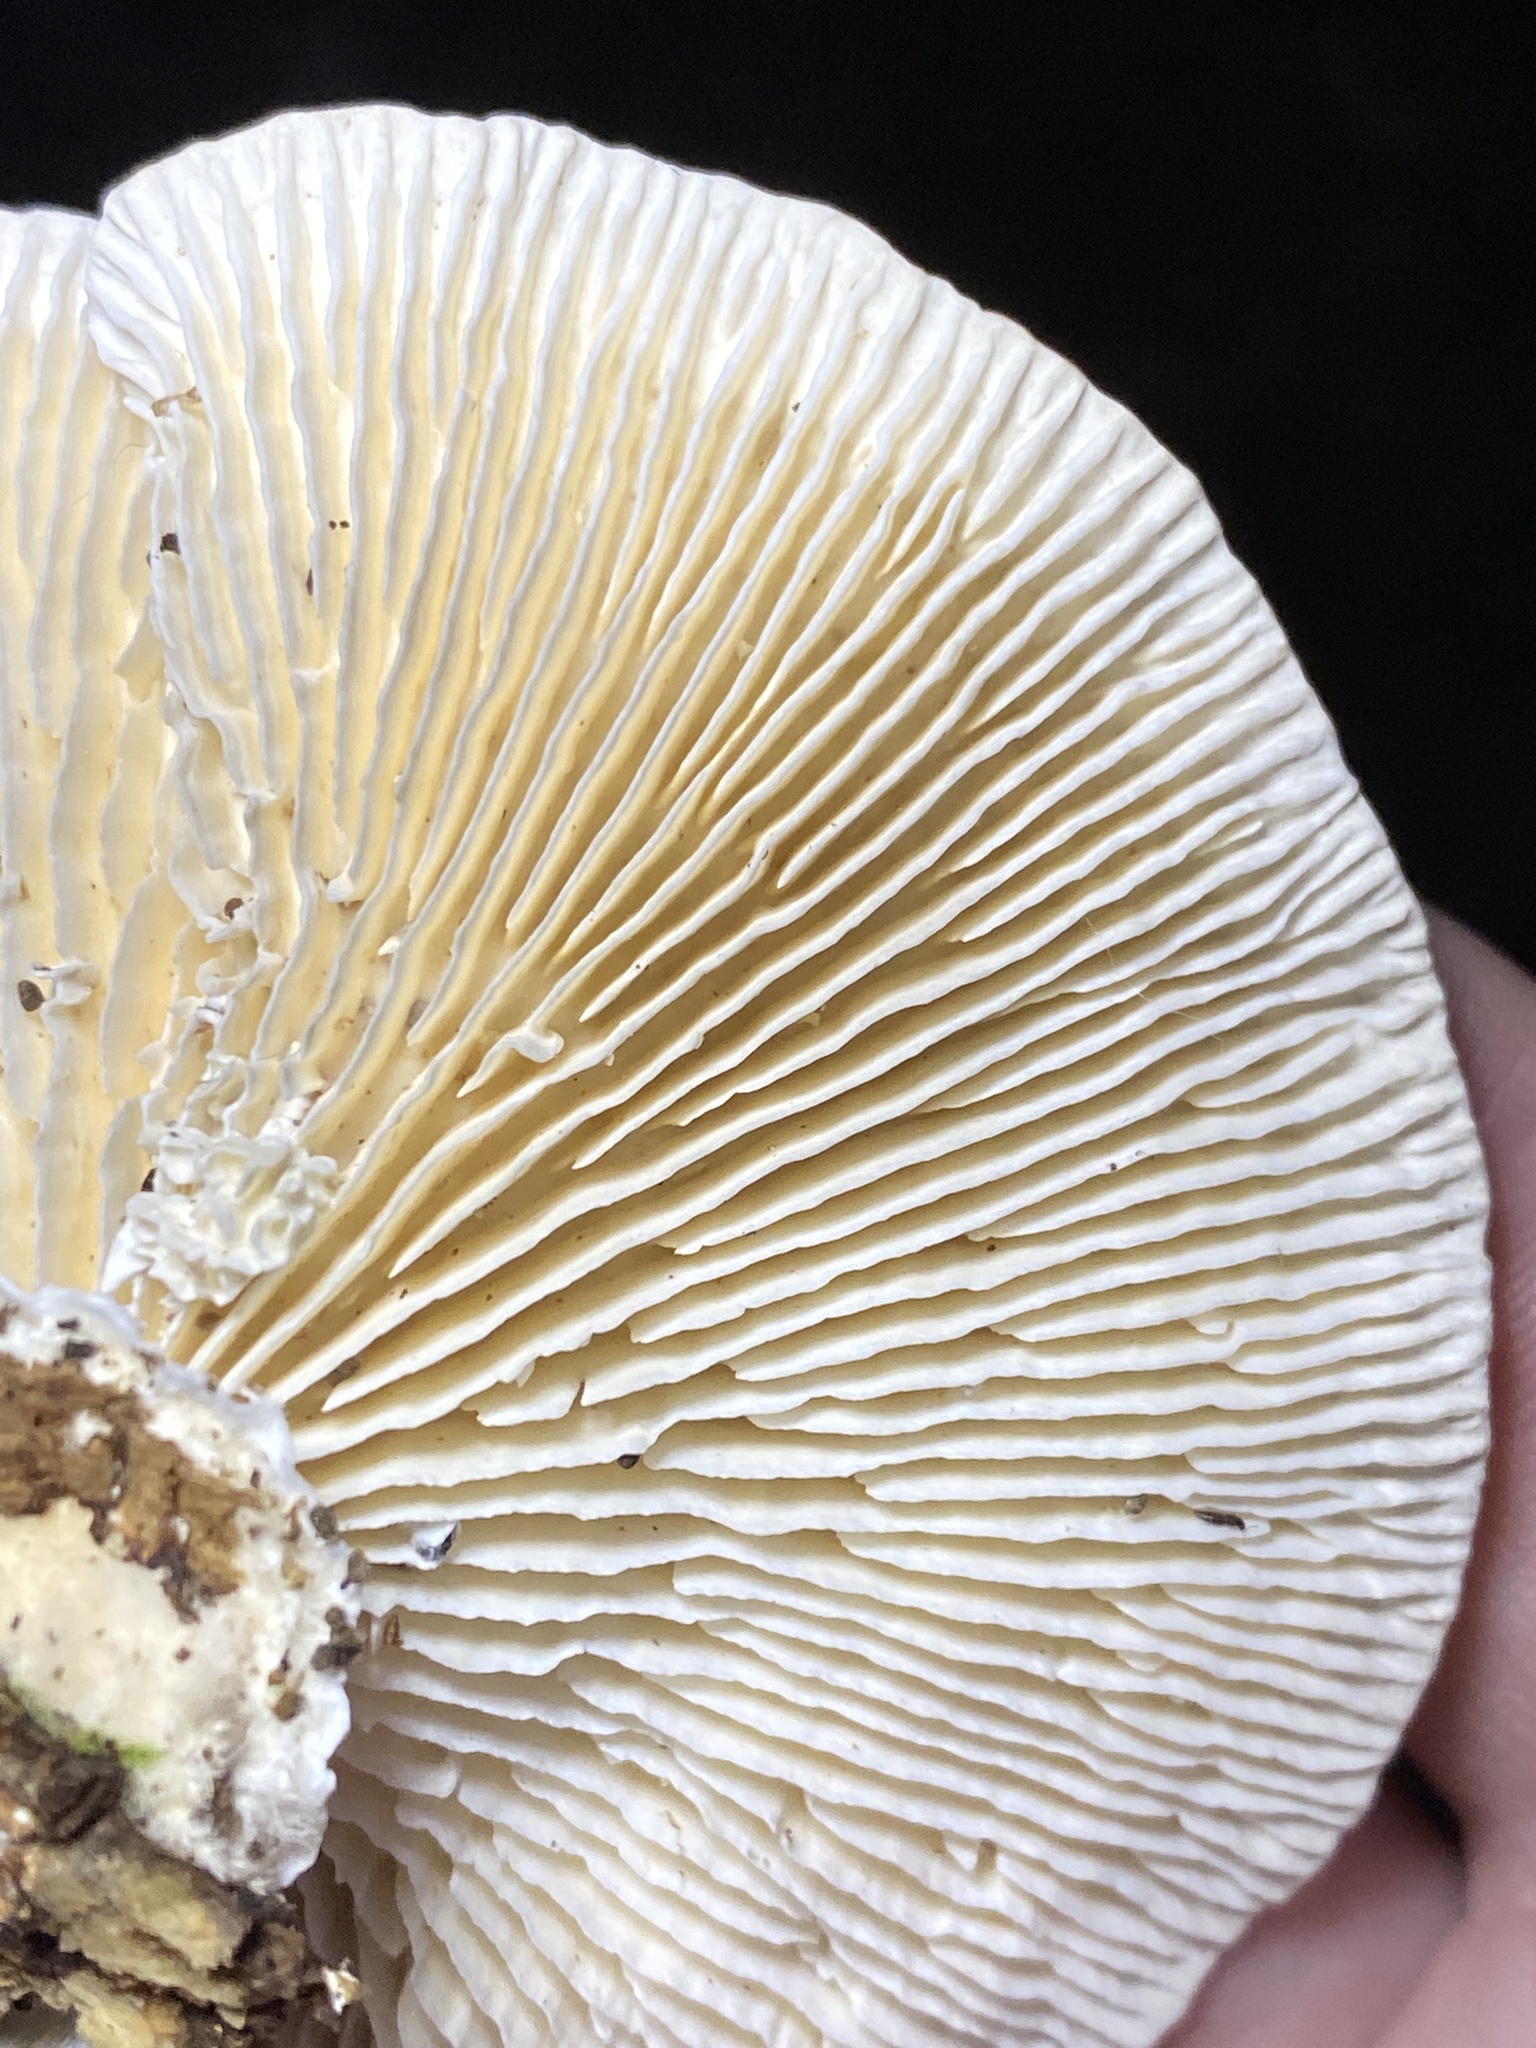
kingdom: Fungi
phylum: Basidiomycota
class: Agaricomycetes
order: Polyporales
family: Polyporaceae
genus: Lenzites
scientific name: Lenzites betulinus
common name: Birch mazegill
